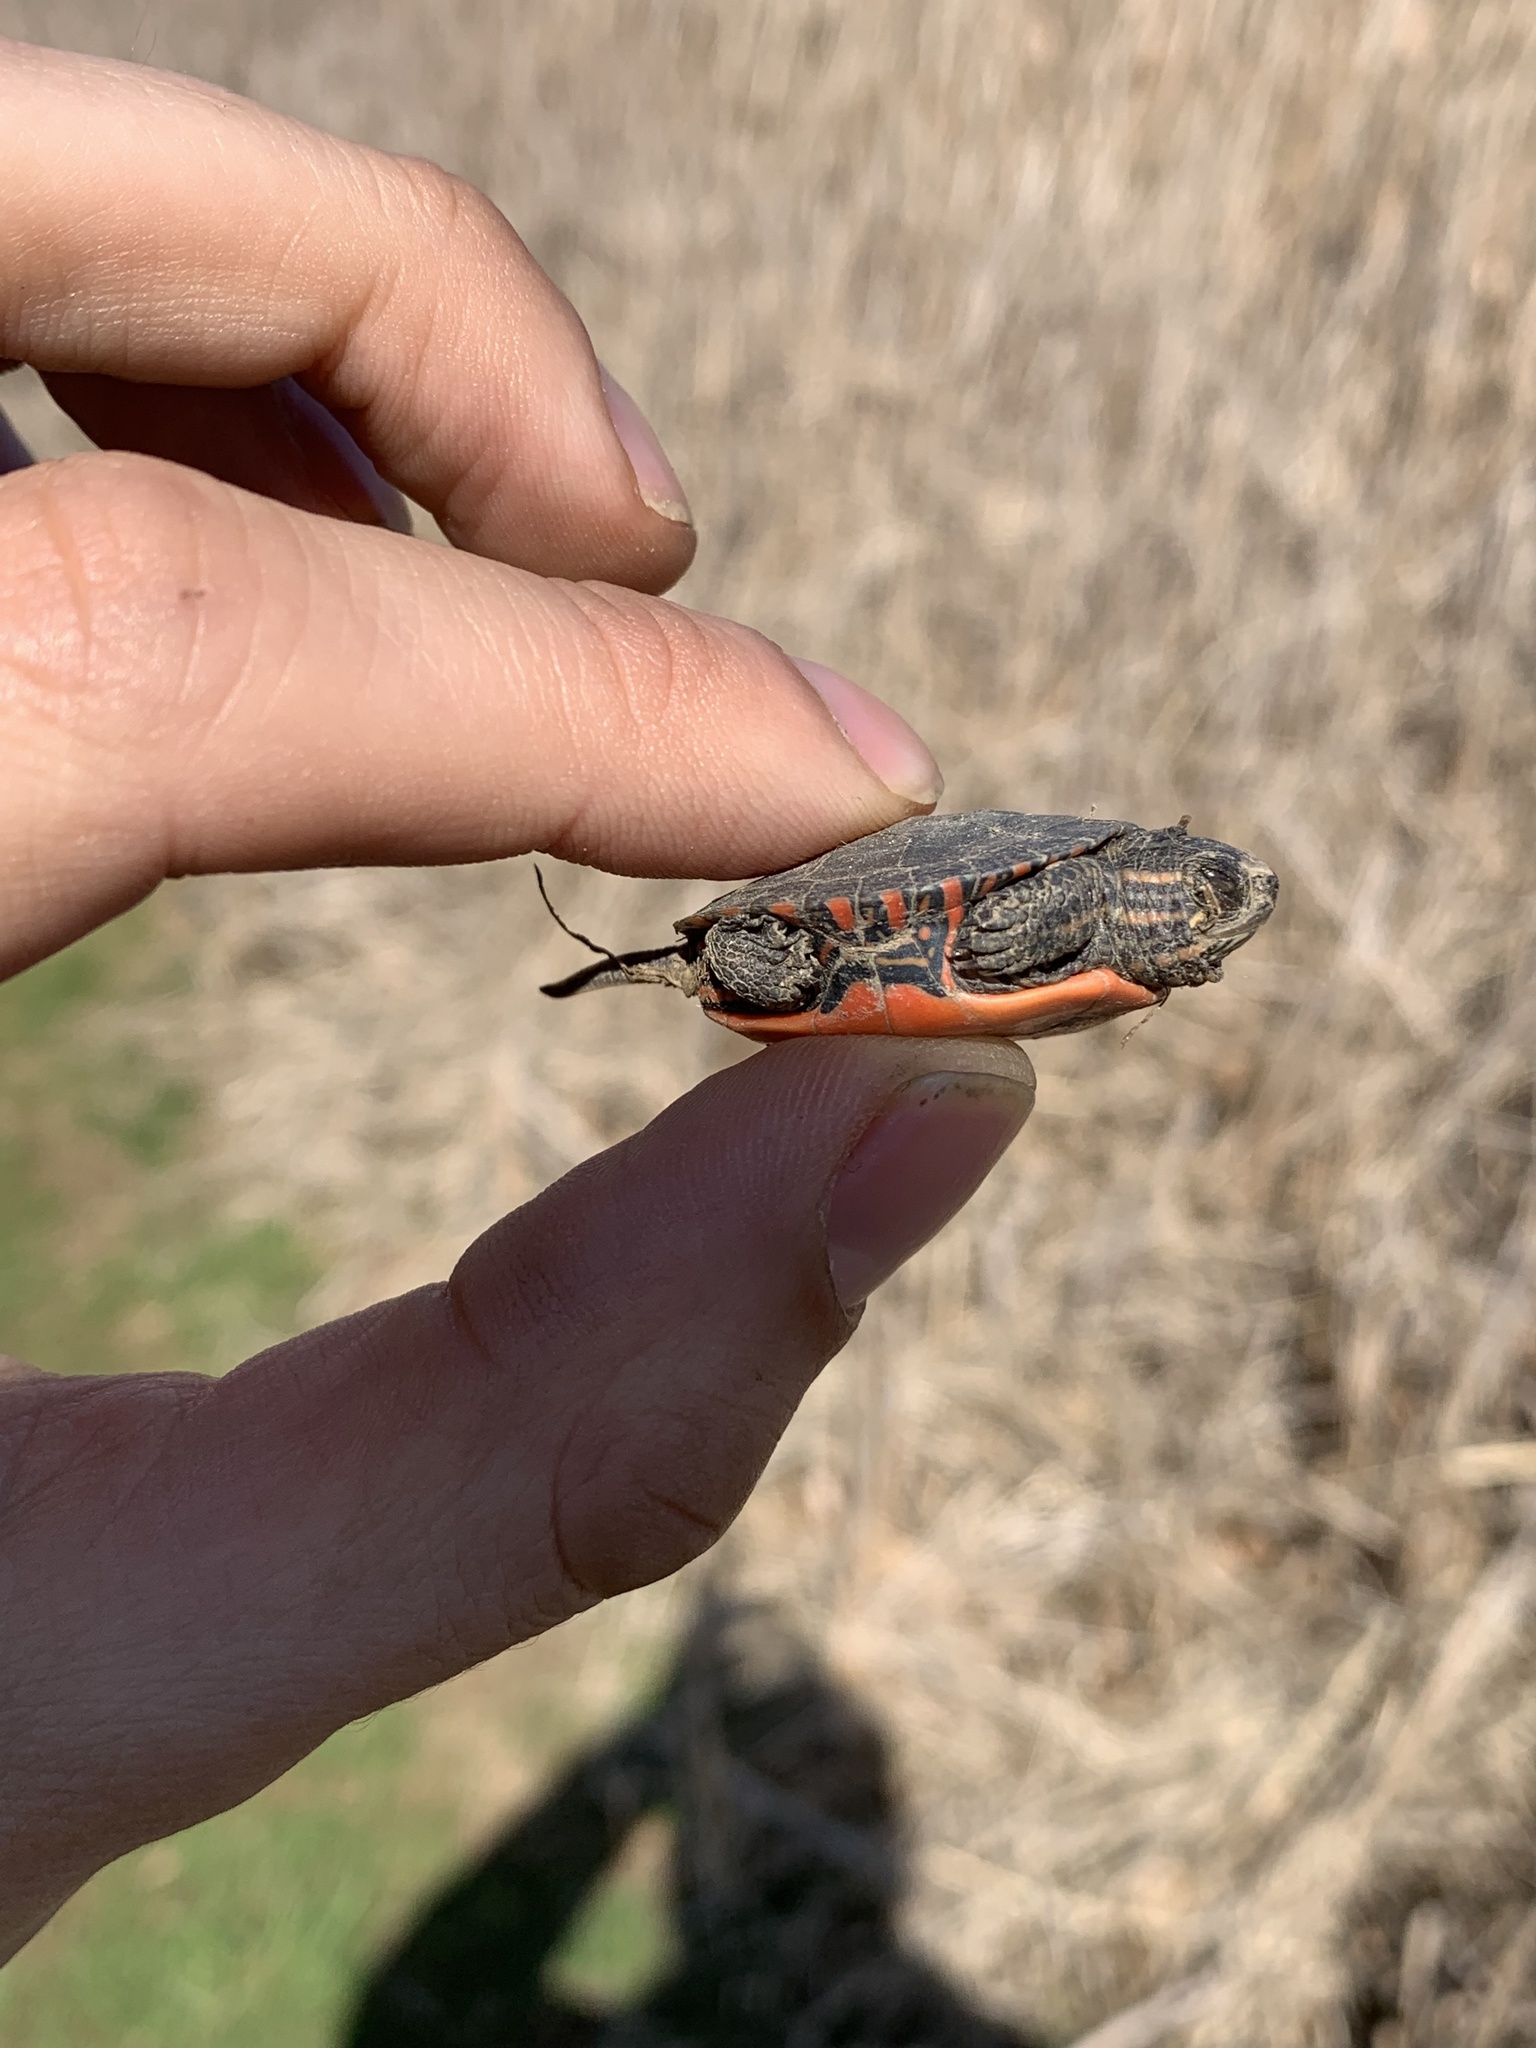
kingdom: Animalia
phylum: Chordata
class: Testudines
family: Emydidae
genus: Chrysemys
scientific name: Chrysemys picta
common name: Painted turtle
